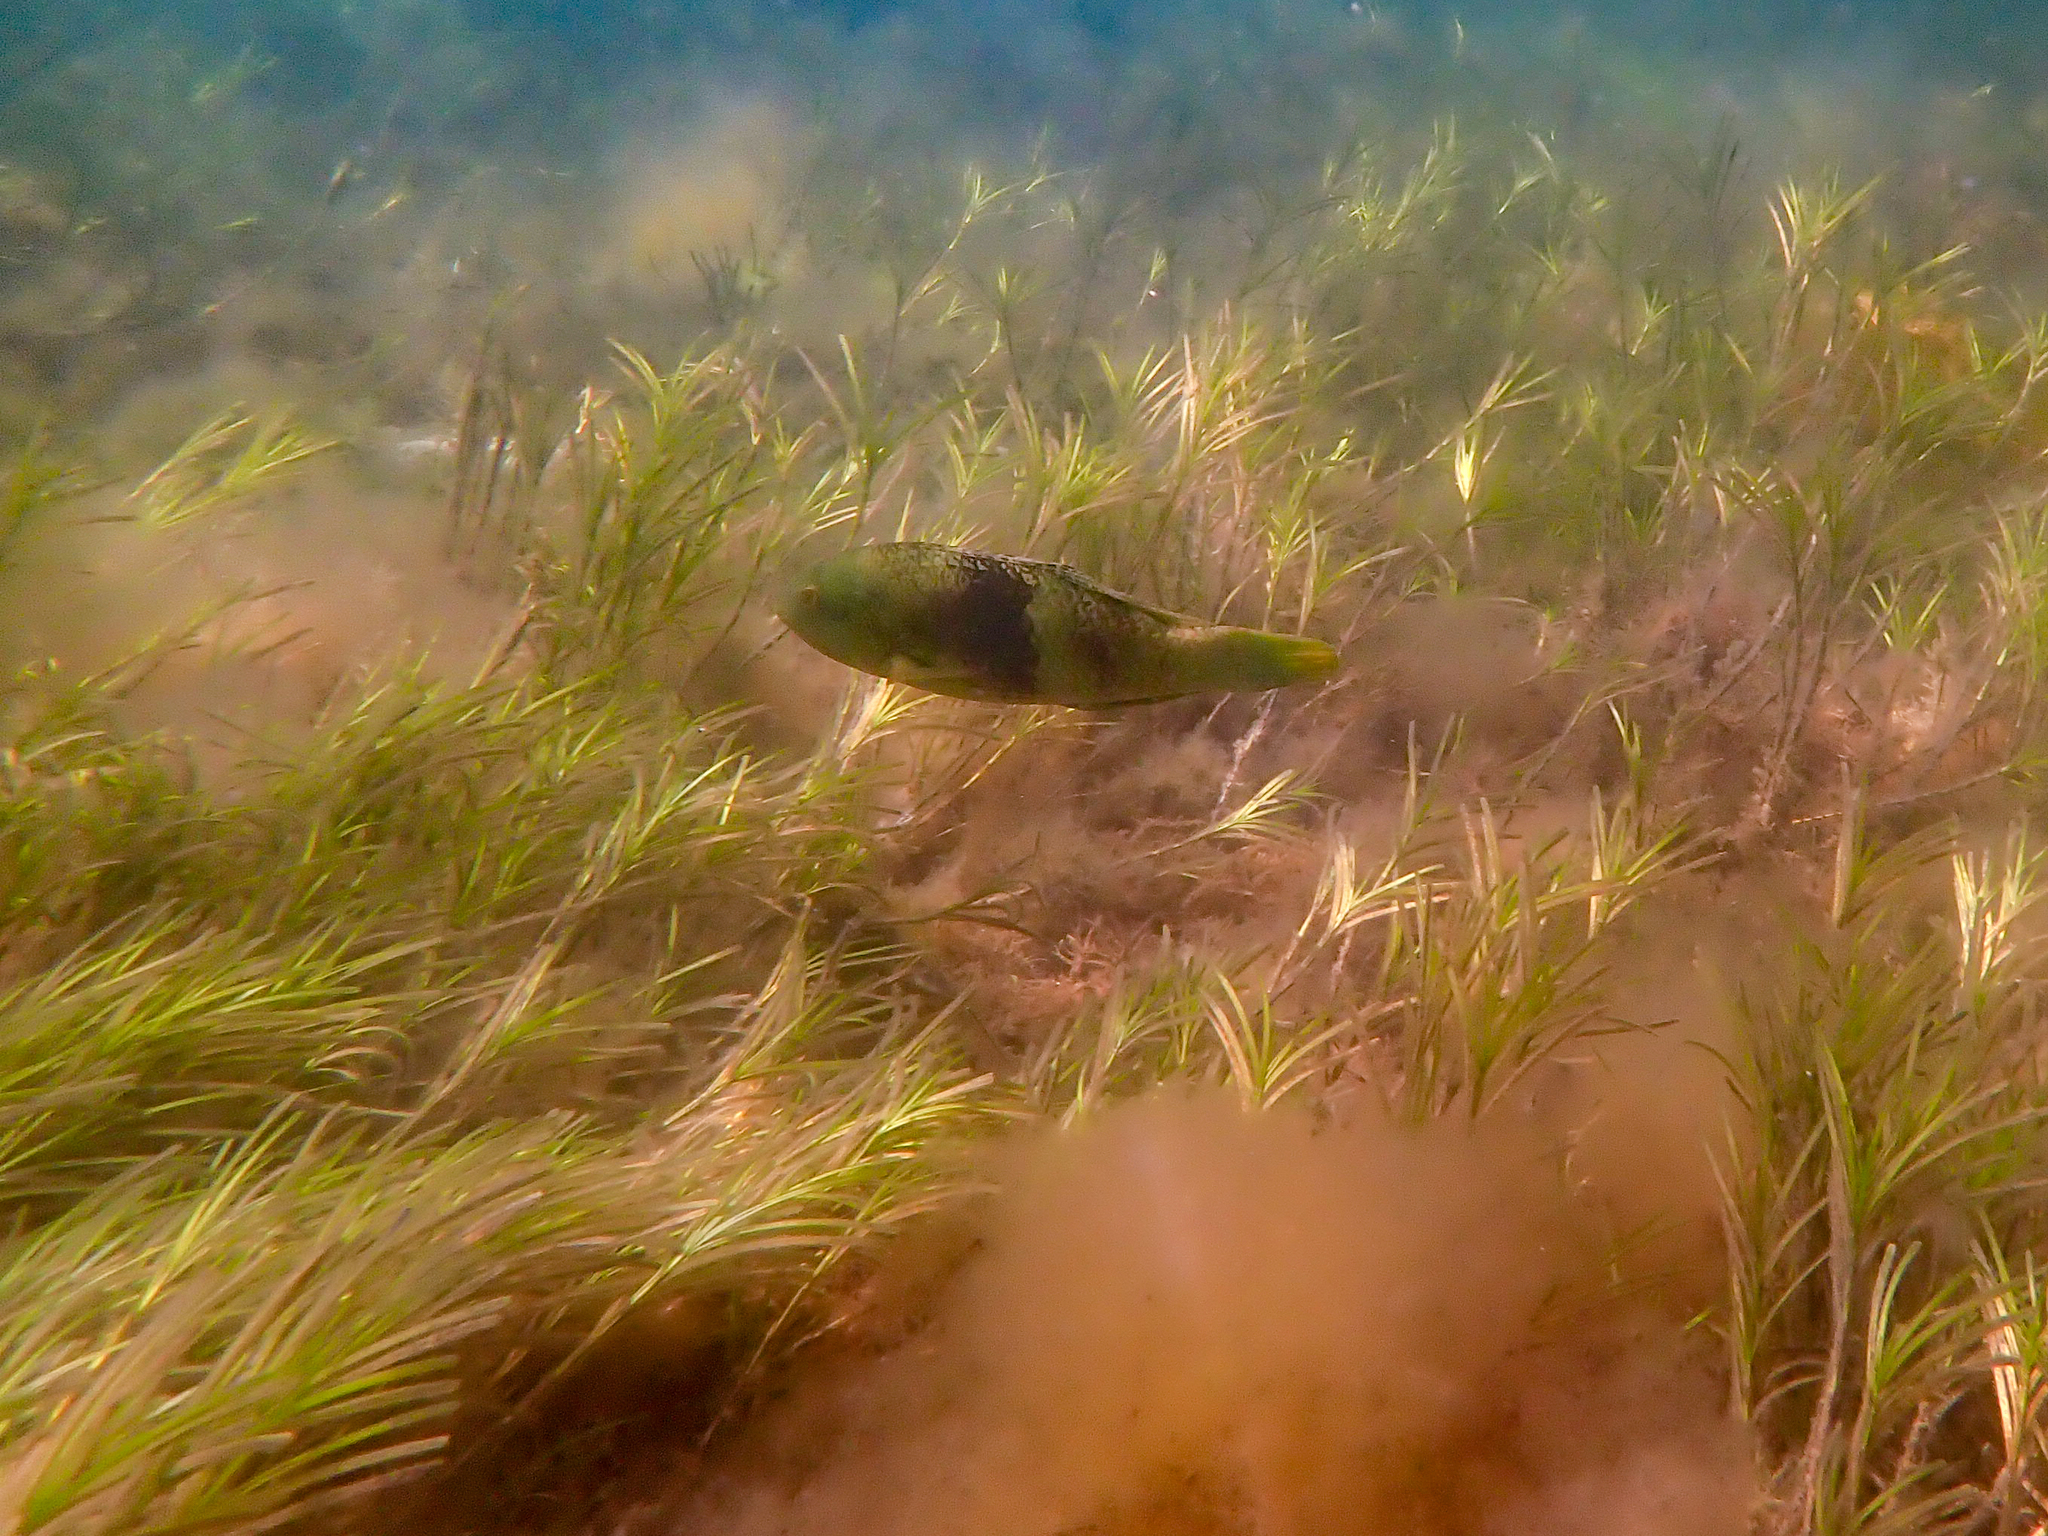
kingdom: Animalia
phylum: Chordata
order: Perciformes
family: Labridae
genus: Notolabrus
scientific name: Notolabrus tetricus
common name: Blue-throated parrotfish
